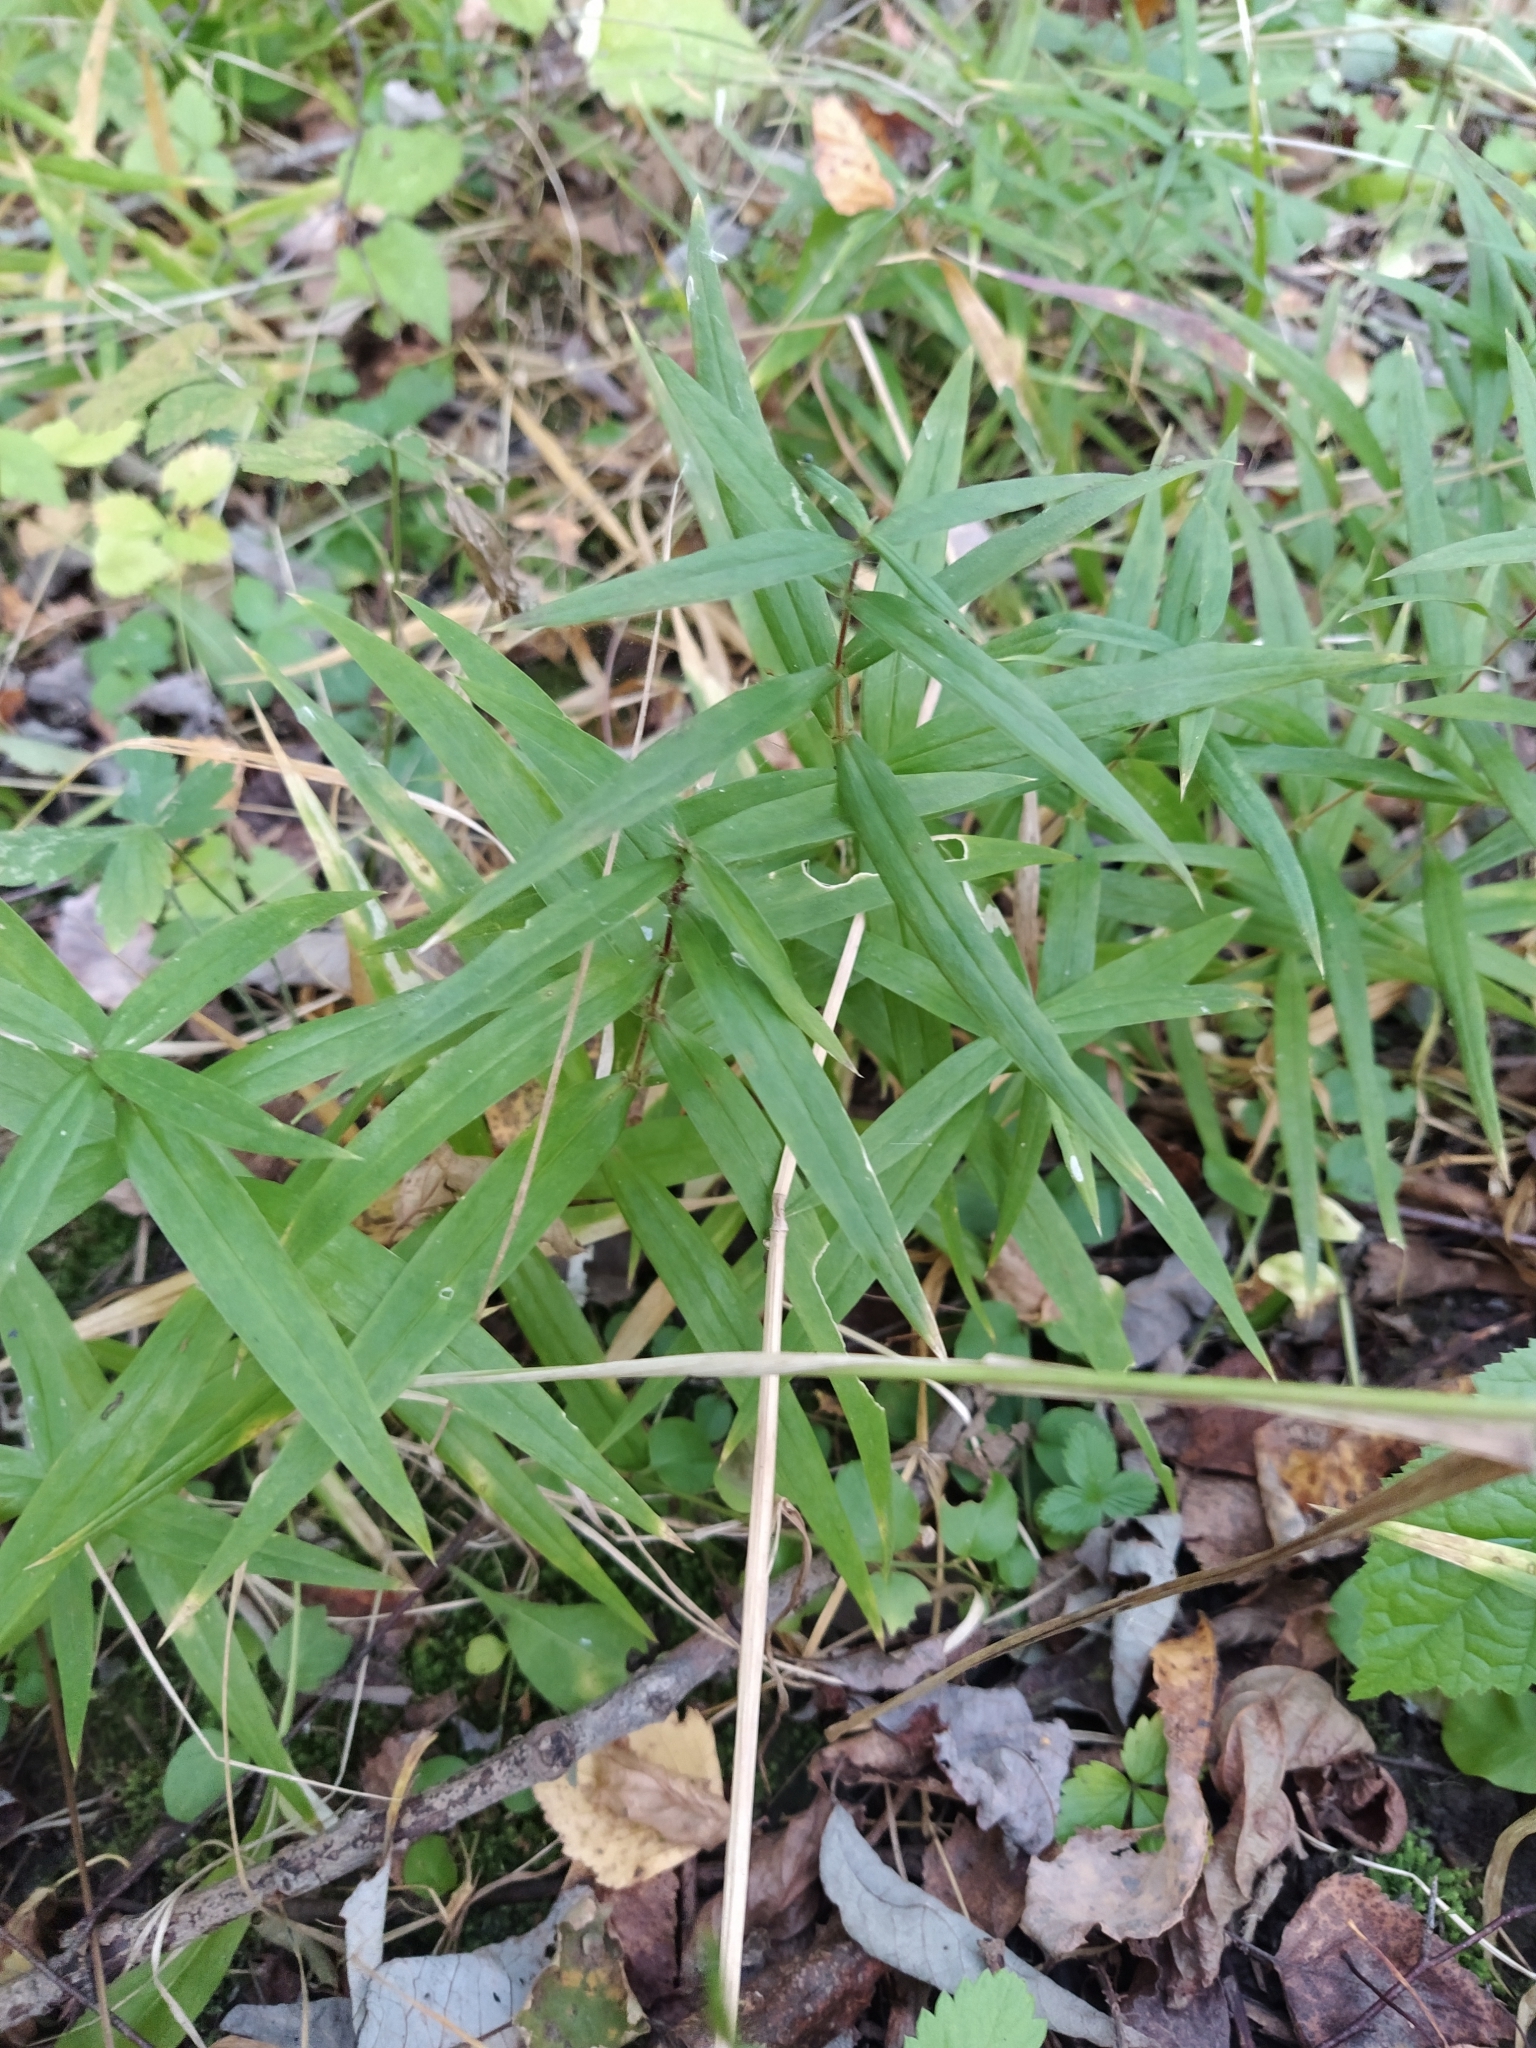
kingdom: Plantae
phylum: Tracheophyta
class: Magnoliopsida
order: Caryophyllales
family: Caryophyllaceae
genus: Rabelera
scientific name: Rabelera holostea
